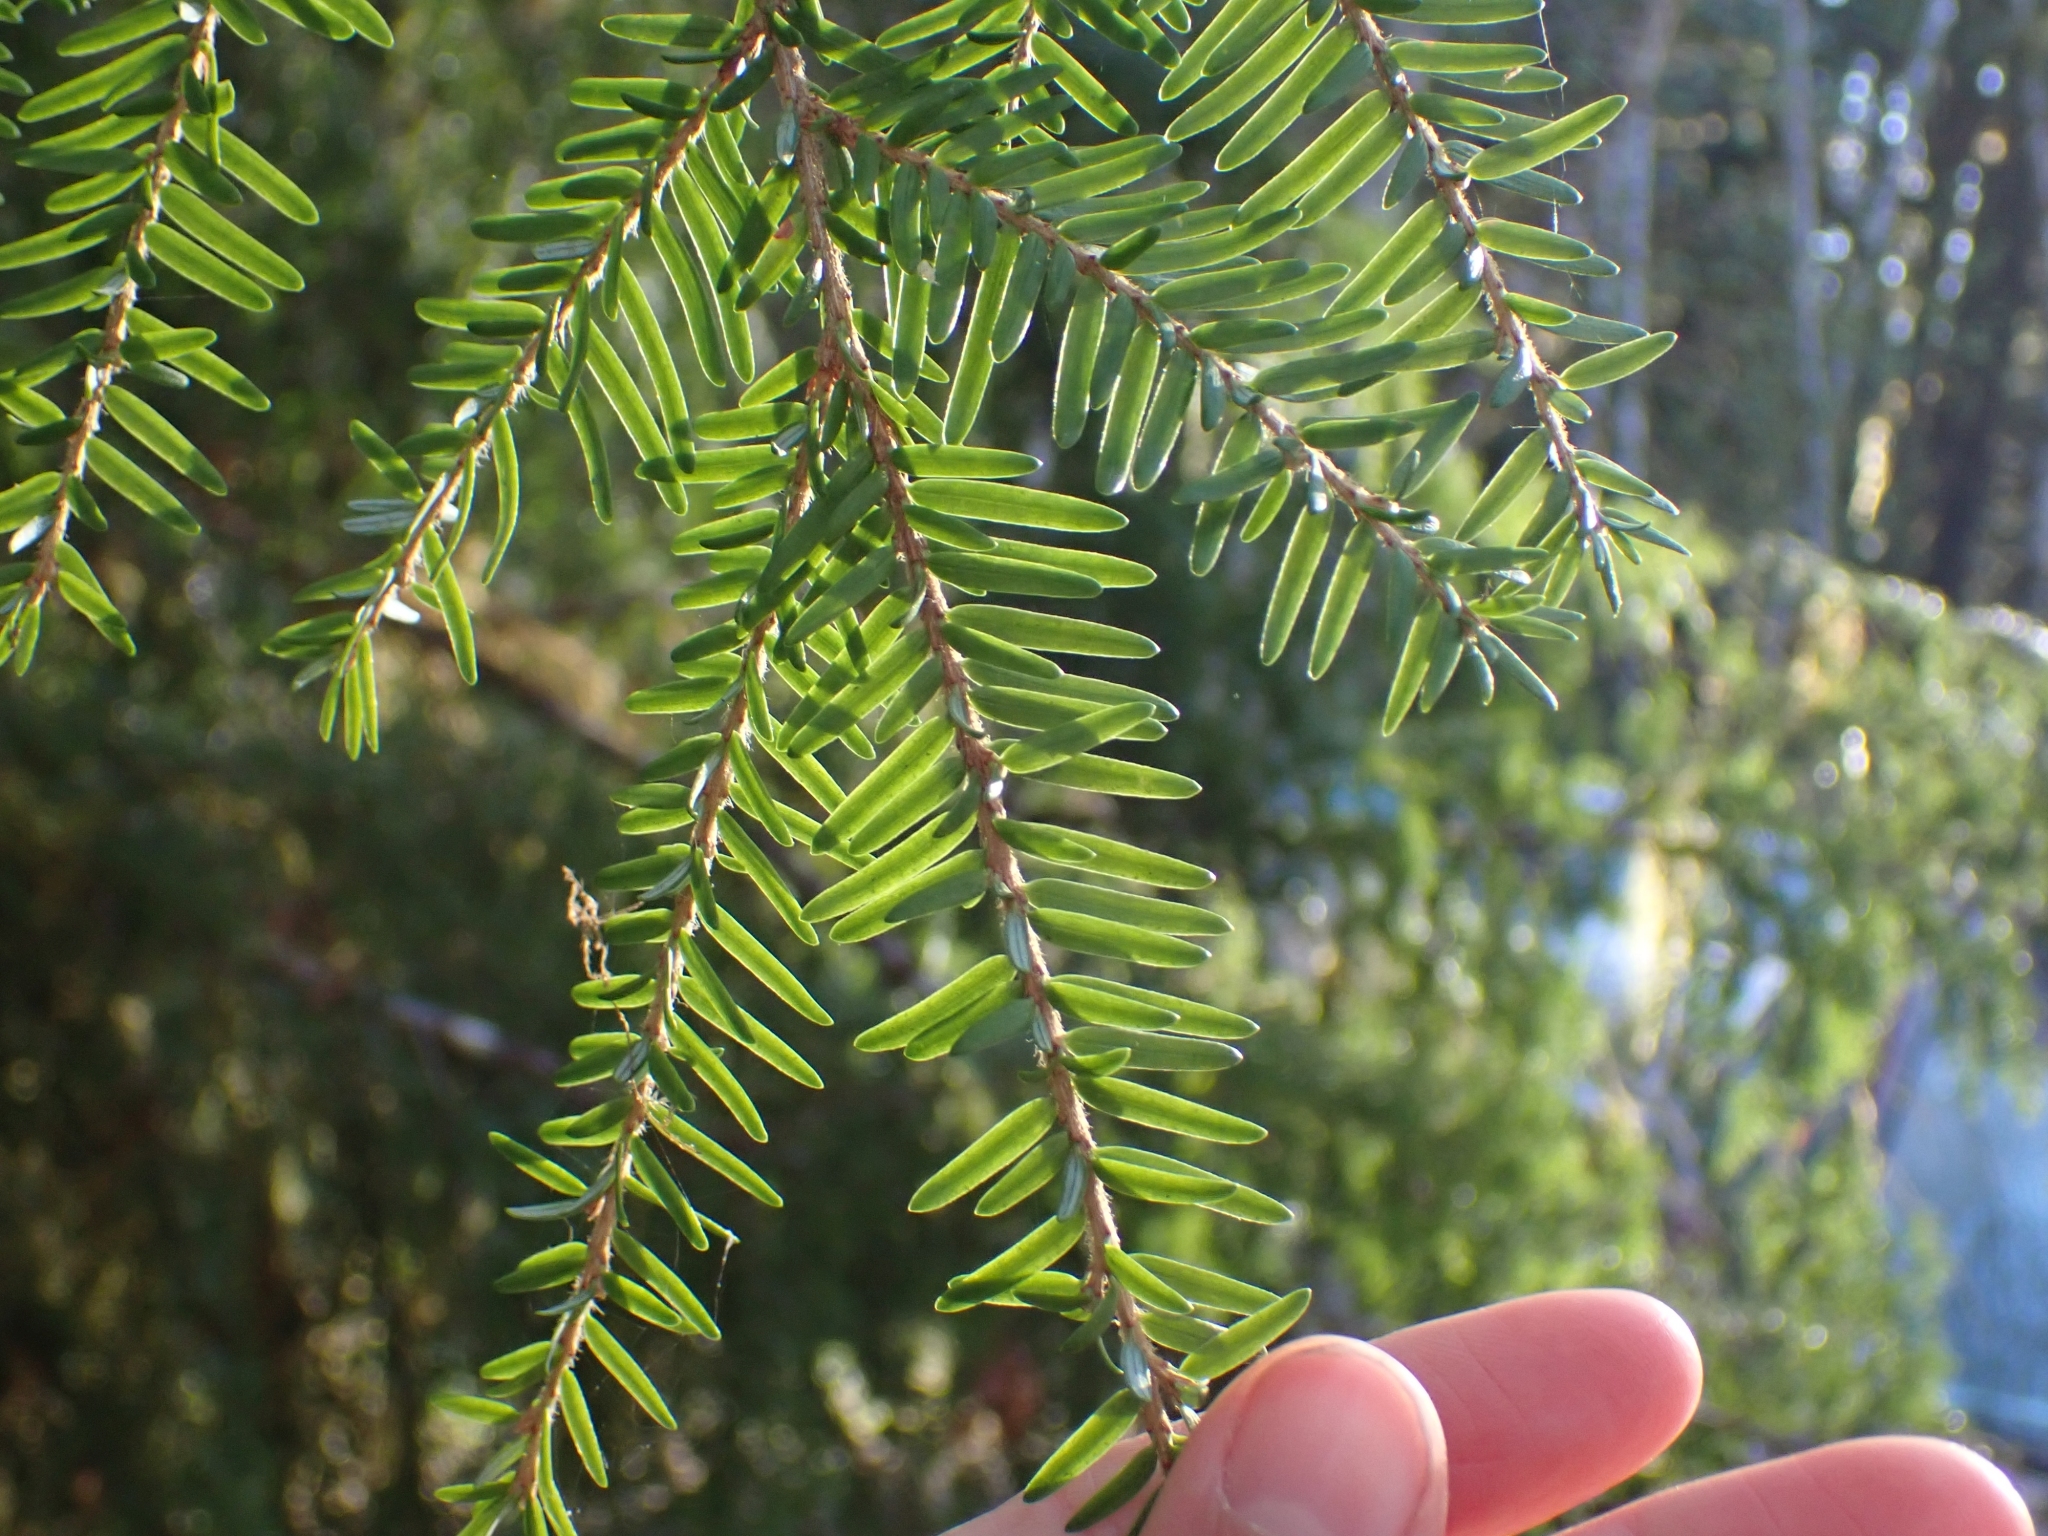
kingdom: Plantae
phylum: Tracheophyta
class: Pinopsida
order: Pinales
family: Pinaceae
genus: Tsuga
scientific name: Tsuga heterophylla
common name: Western hemlock
